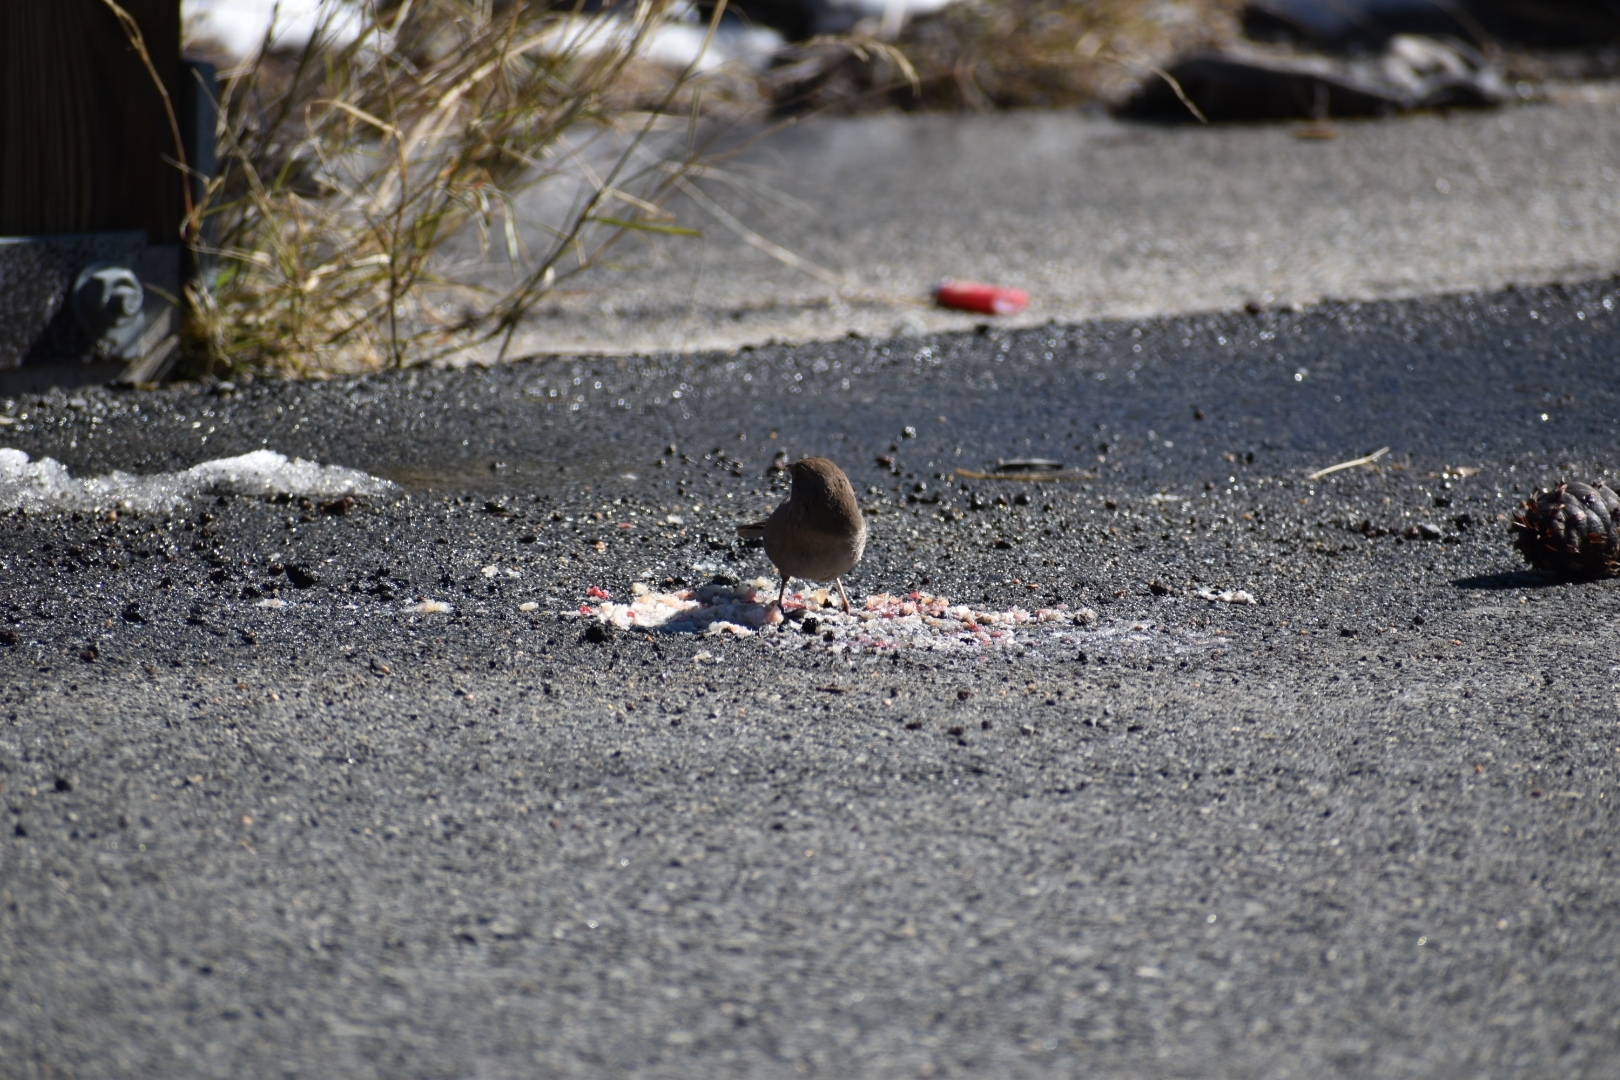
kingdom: Animalia
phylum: Chordata
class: Aves
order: Passeriformes
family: Passerellidae
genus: Melozone
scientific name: Melozone crissalis
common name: California towhee
